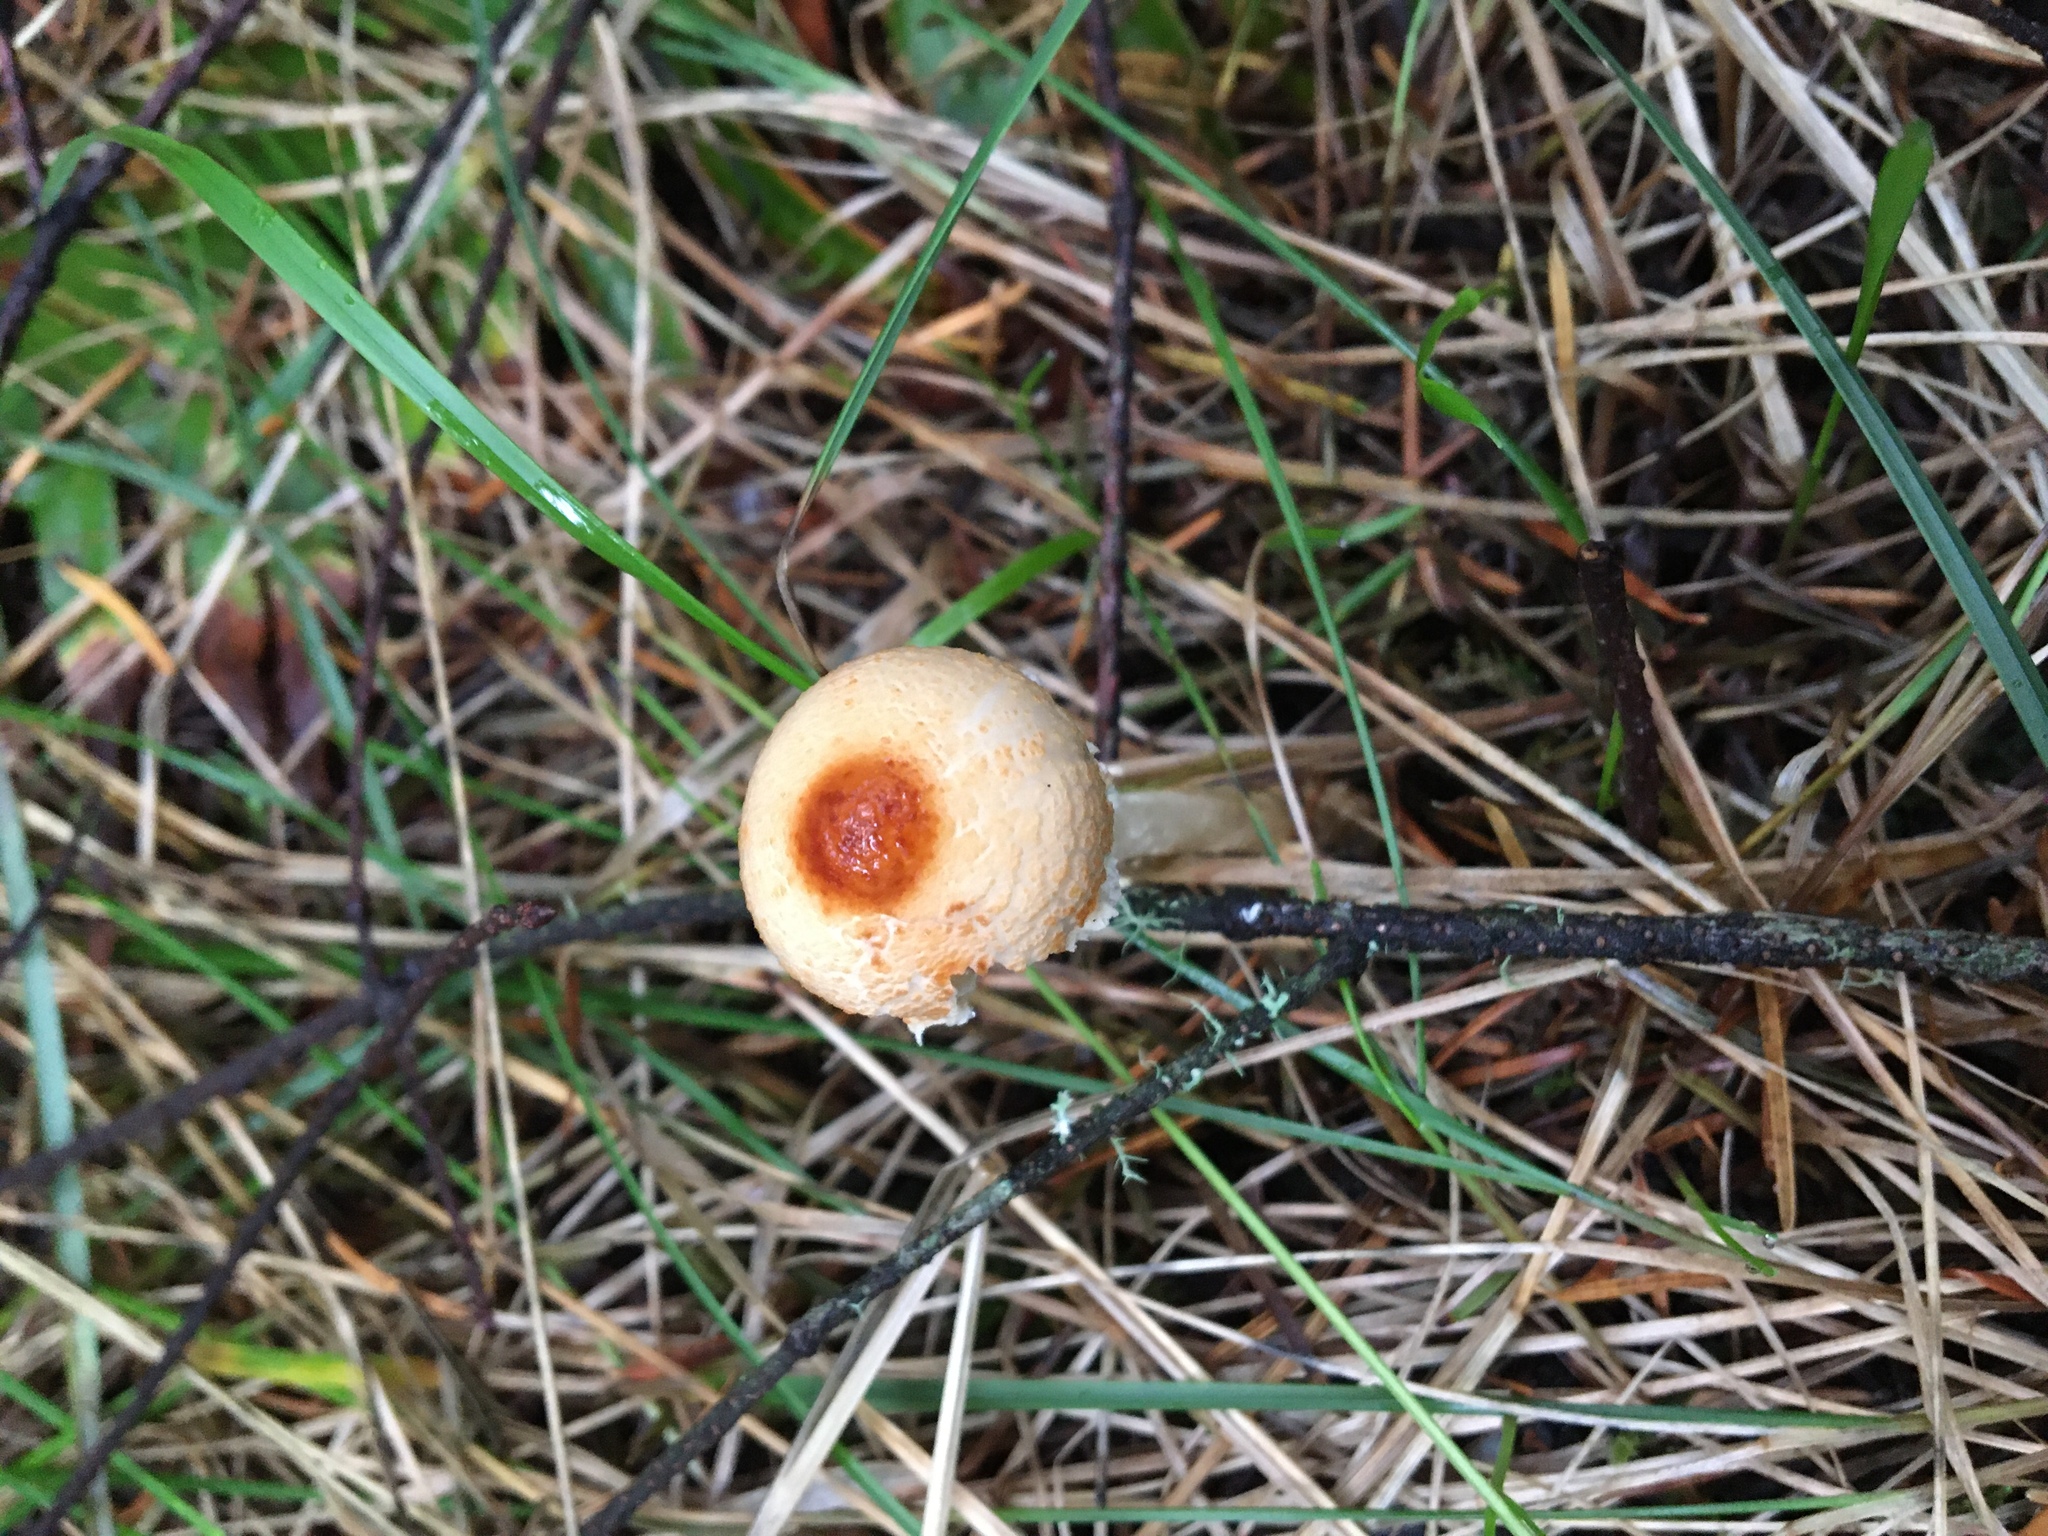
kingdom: Fungi
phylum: Basidiomycota
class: Agaricomycetes
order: Agaricales
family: Agaricaceae
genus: Lepiota
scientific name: Lepiota magnispora
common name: Yellowfoot dapperling
